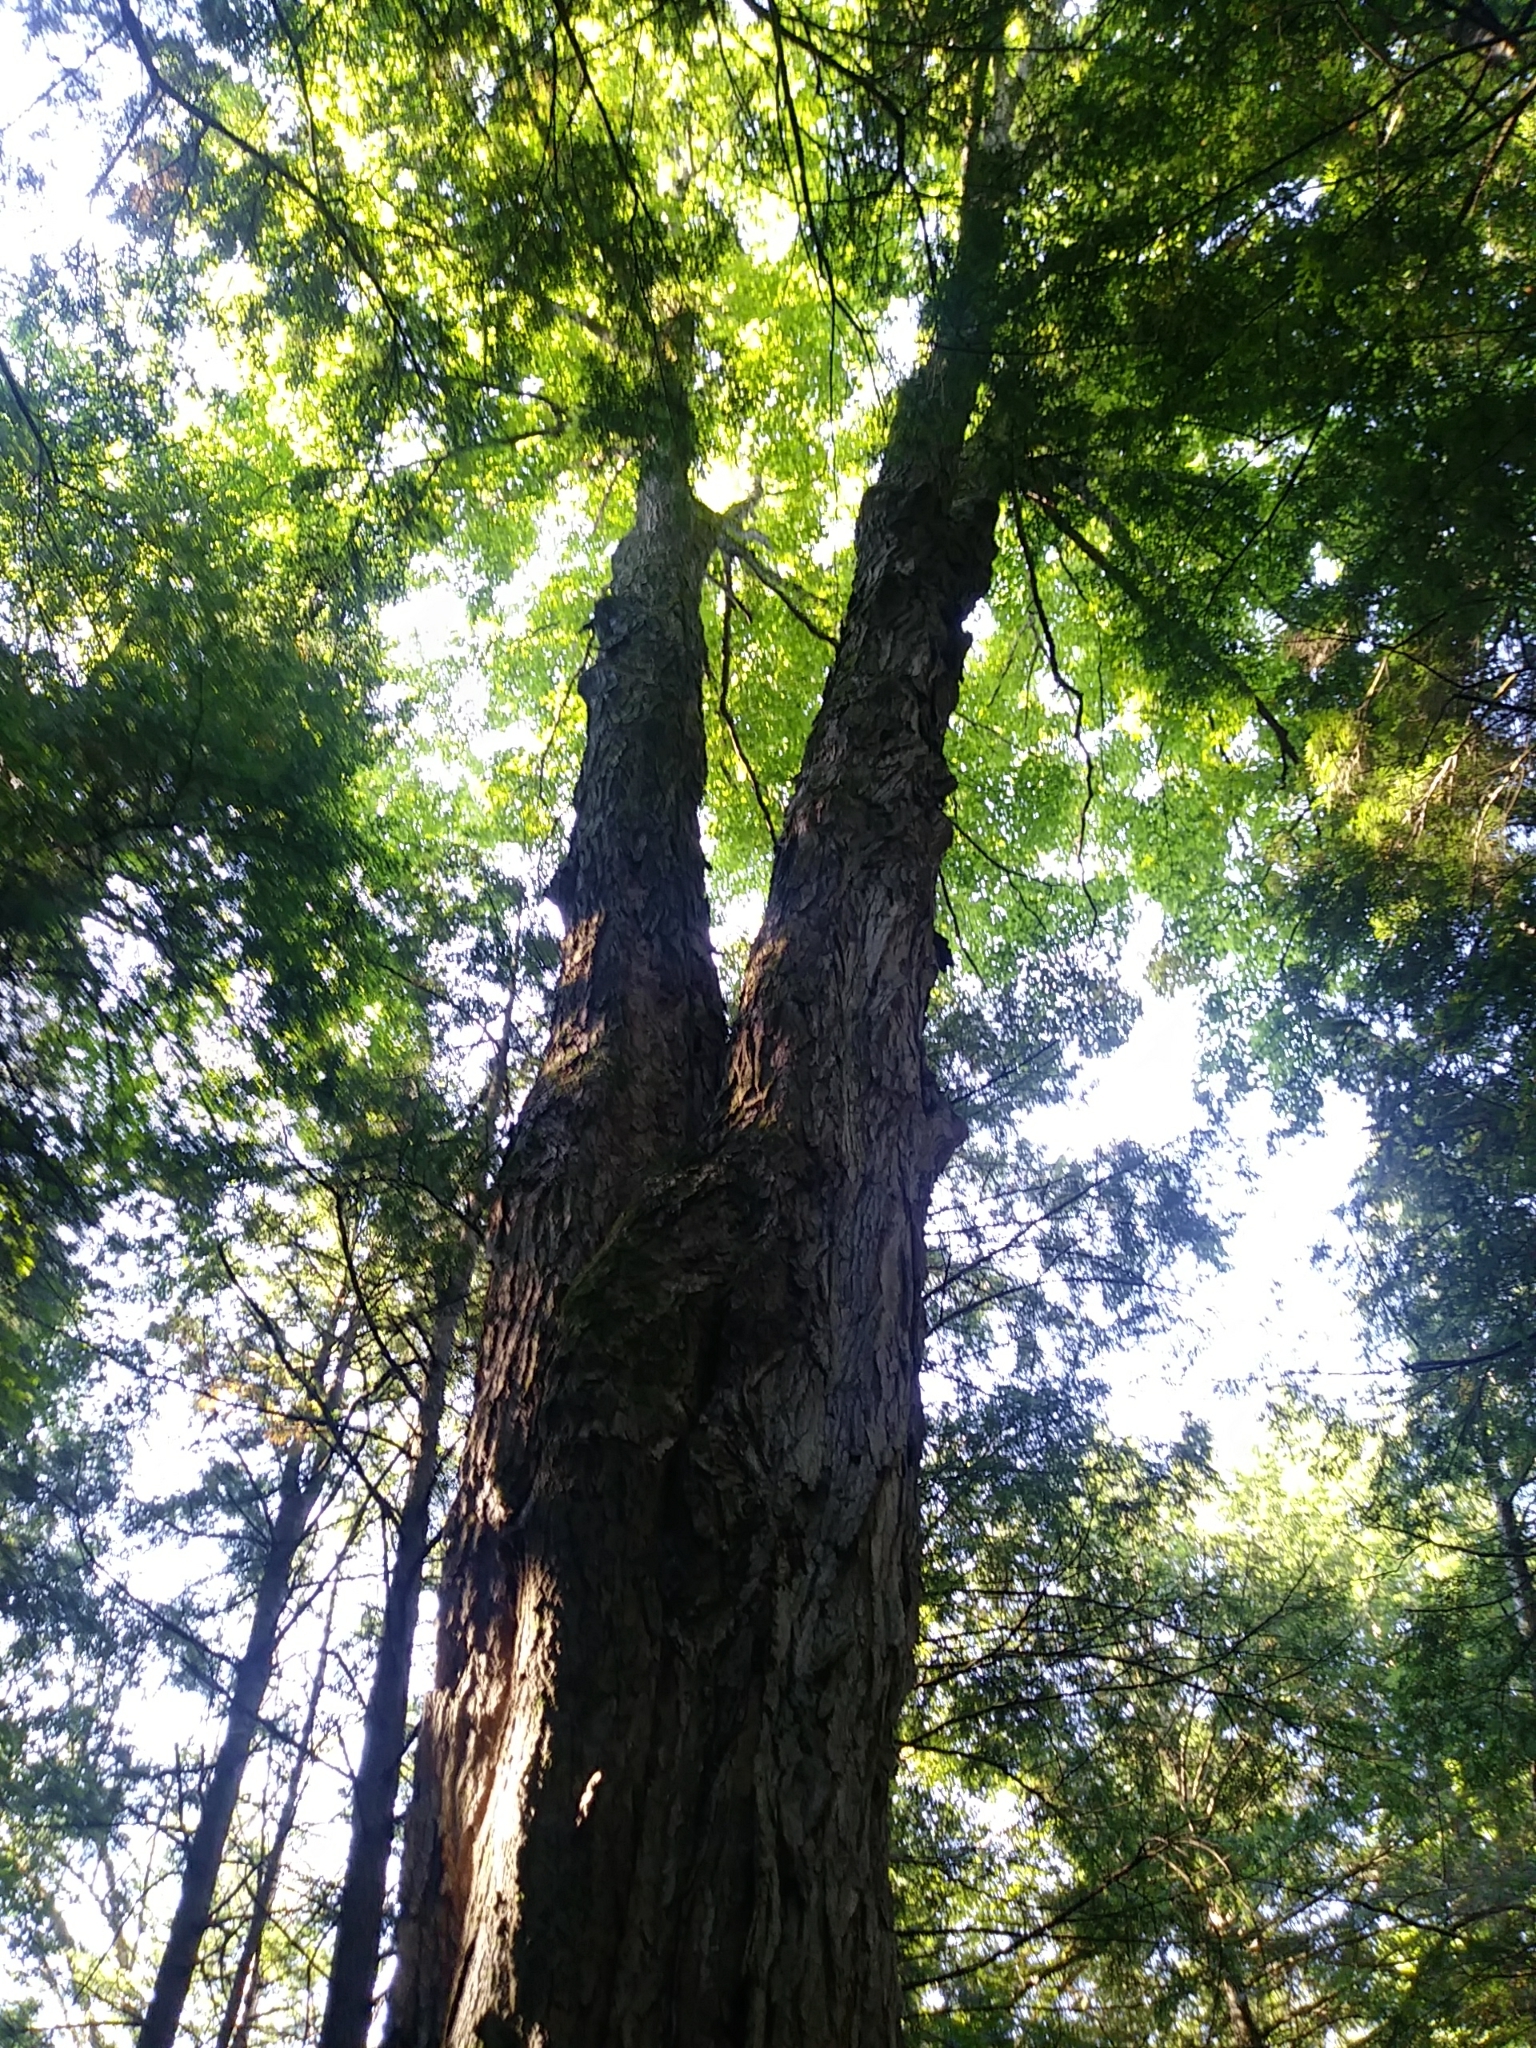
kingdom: Plantae
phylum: Tracheophyta
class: Magnoliopsida
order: Sapindales
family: Sapindaceae
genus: Acer
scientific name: Acer saccharum
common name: Sugar maple
